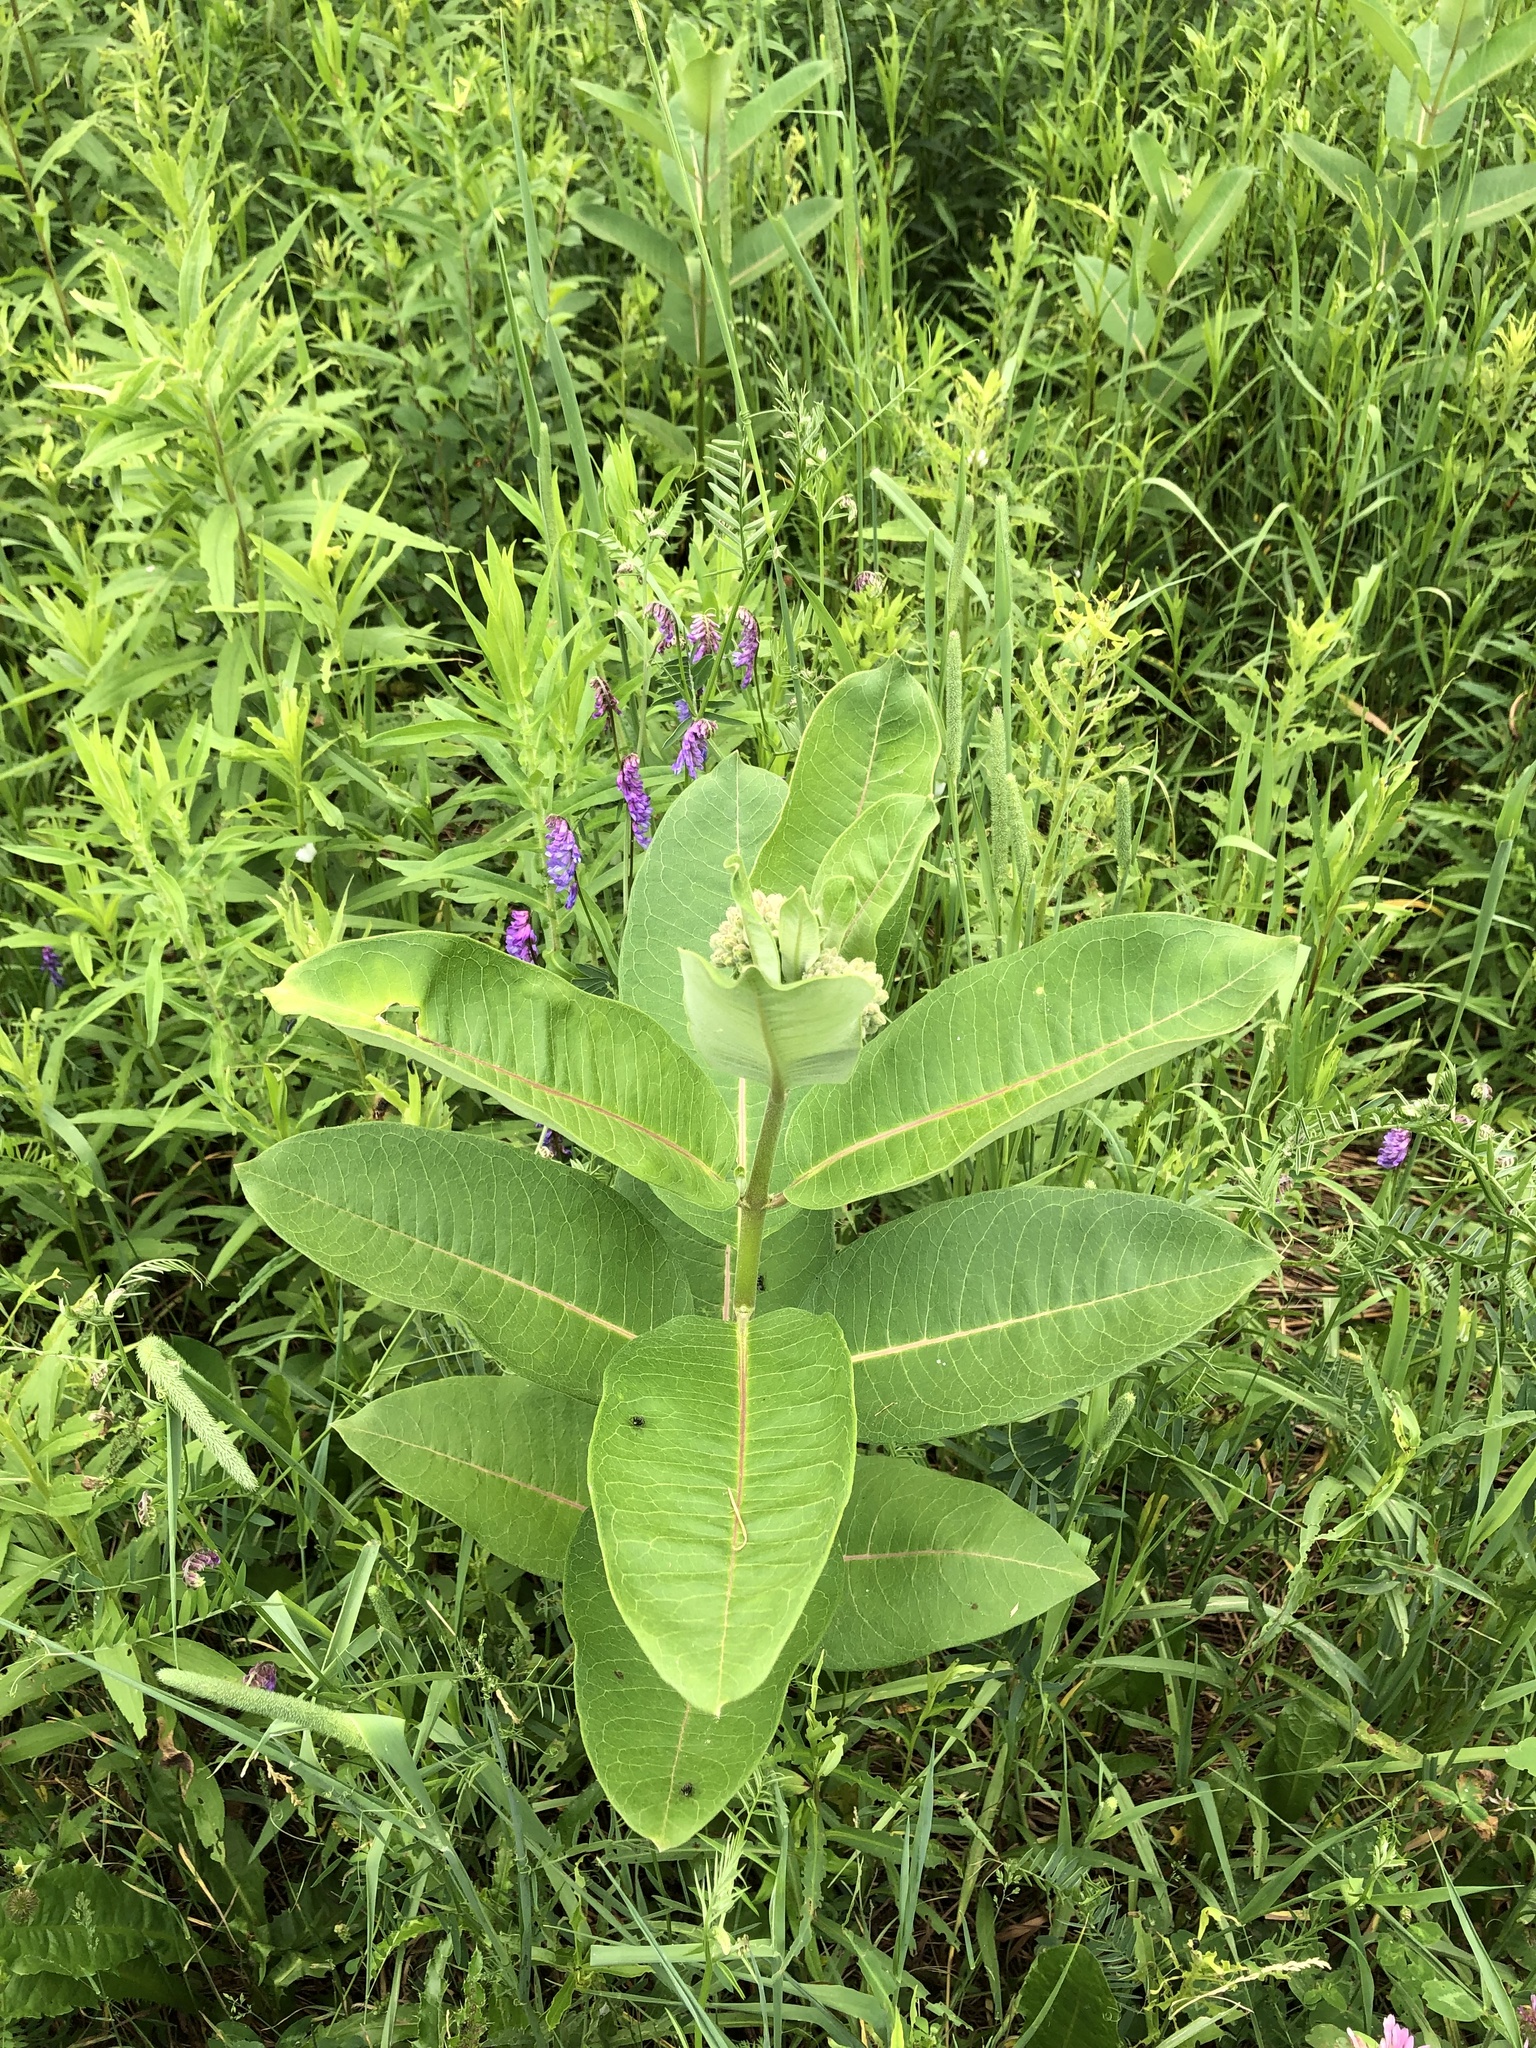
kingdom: Plantae
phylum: Tracheophyta
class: Magnoliopsida
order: Gentianales
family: Apocynaceae
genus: Asclepias
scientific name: Asclepias syriaca
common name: Common milkweed
